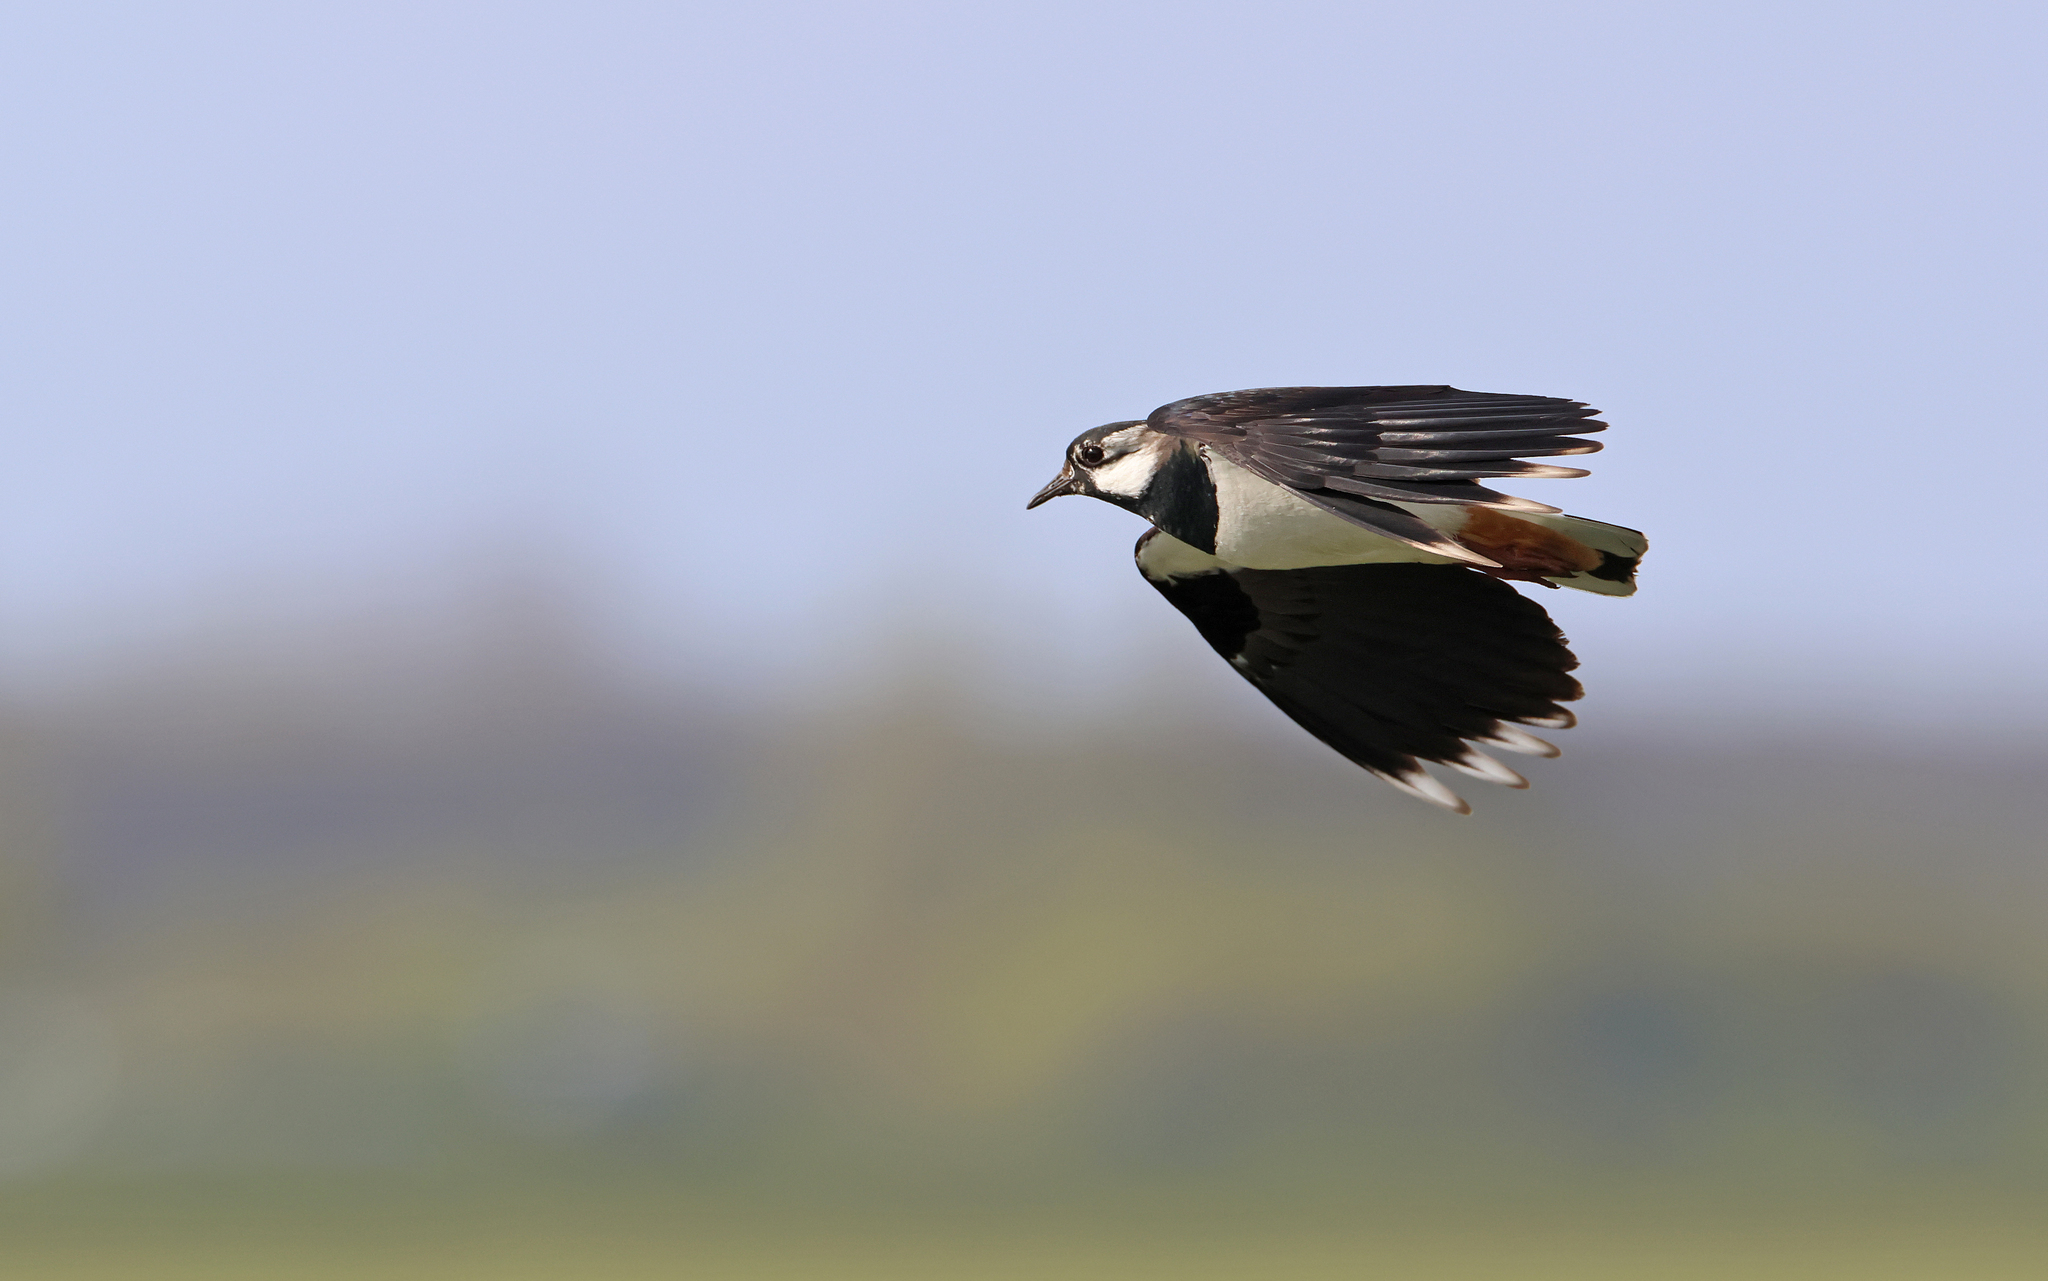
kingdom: Animalia
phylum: Chordata
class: Aves
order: Charadriiformes
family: Charadriidae
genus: Vanellus
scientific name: Vanellus vanellus
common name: Northern lapwing
